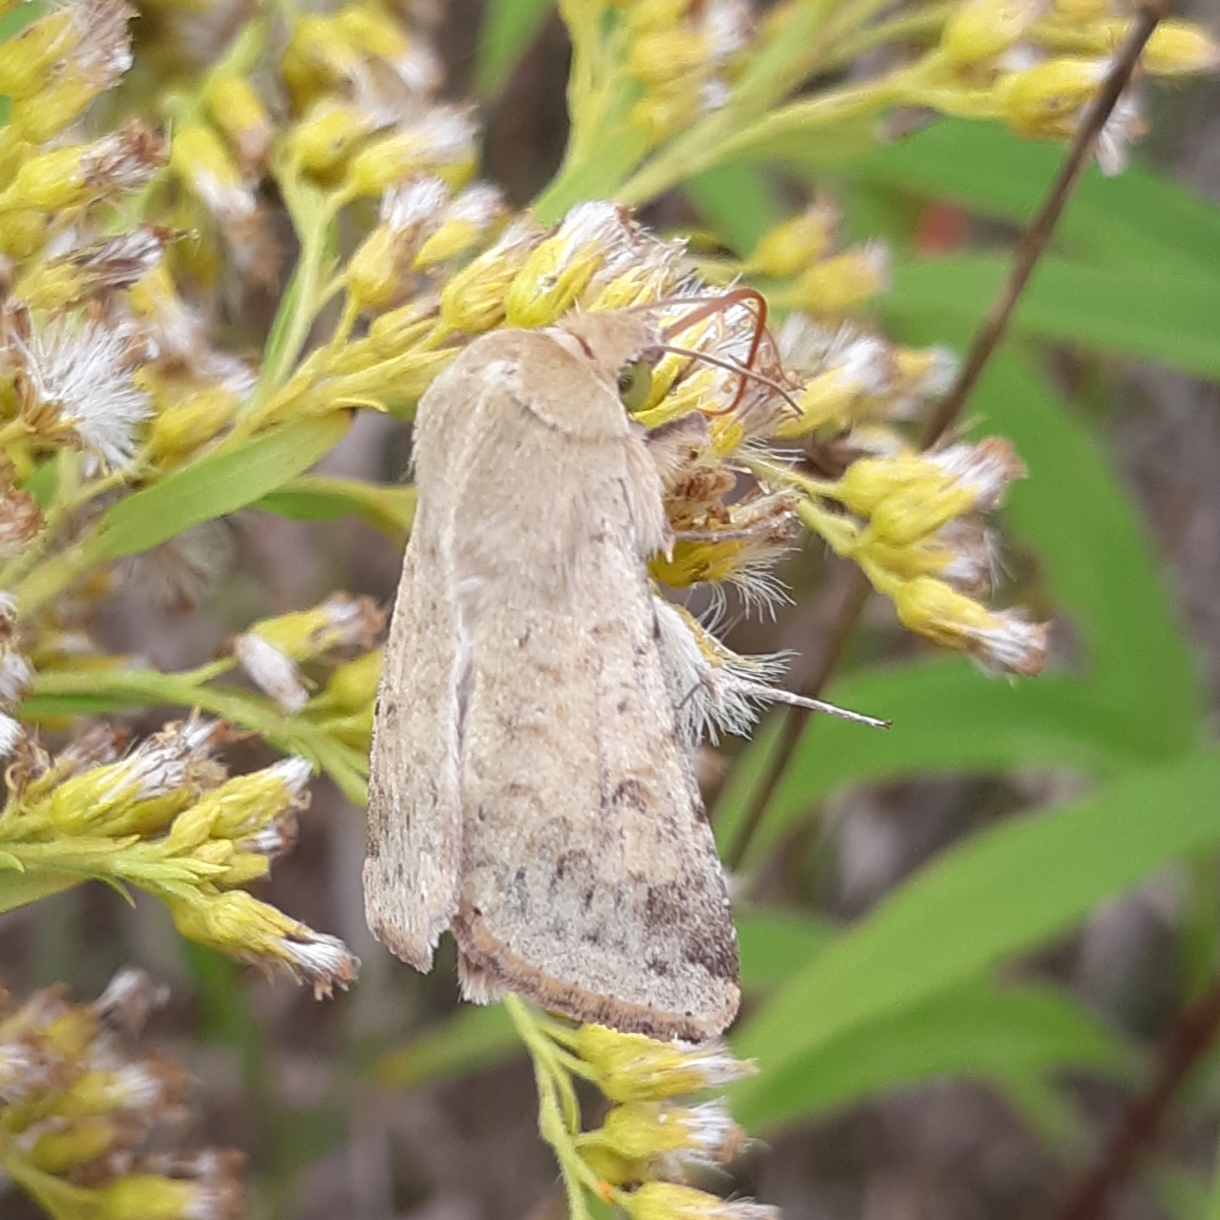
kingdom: Animalia
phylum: Arthropoda
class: Insecta
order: Lepidoptera
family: Noctuidae
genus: Helicoverpa
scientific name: Helicoverpa zea
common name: Bollworm
